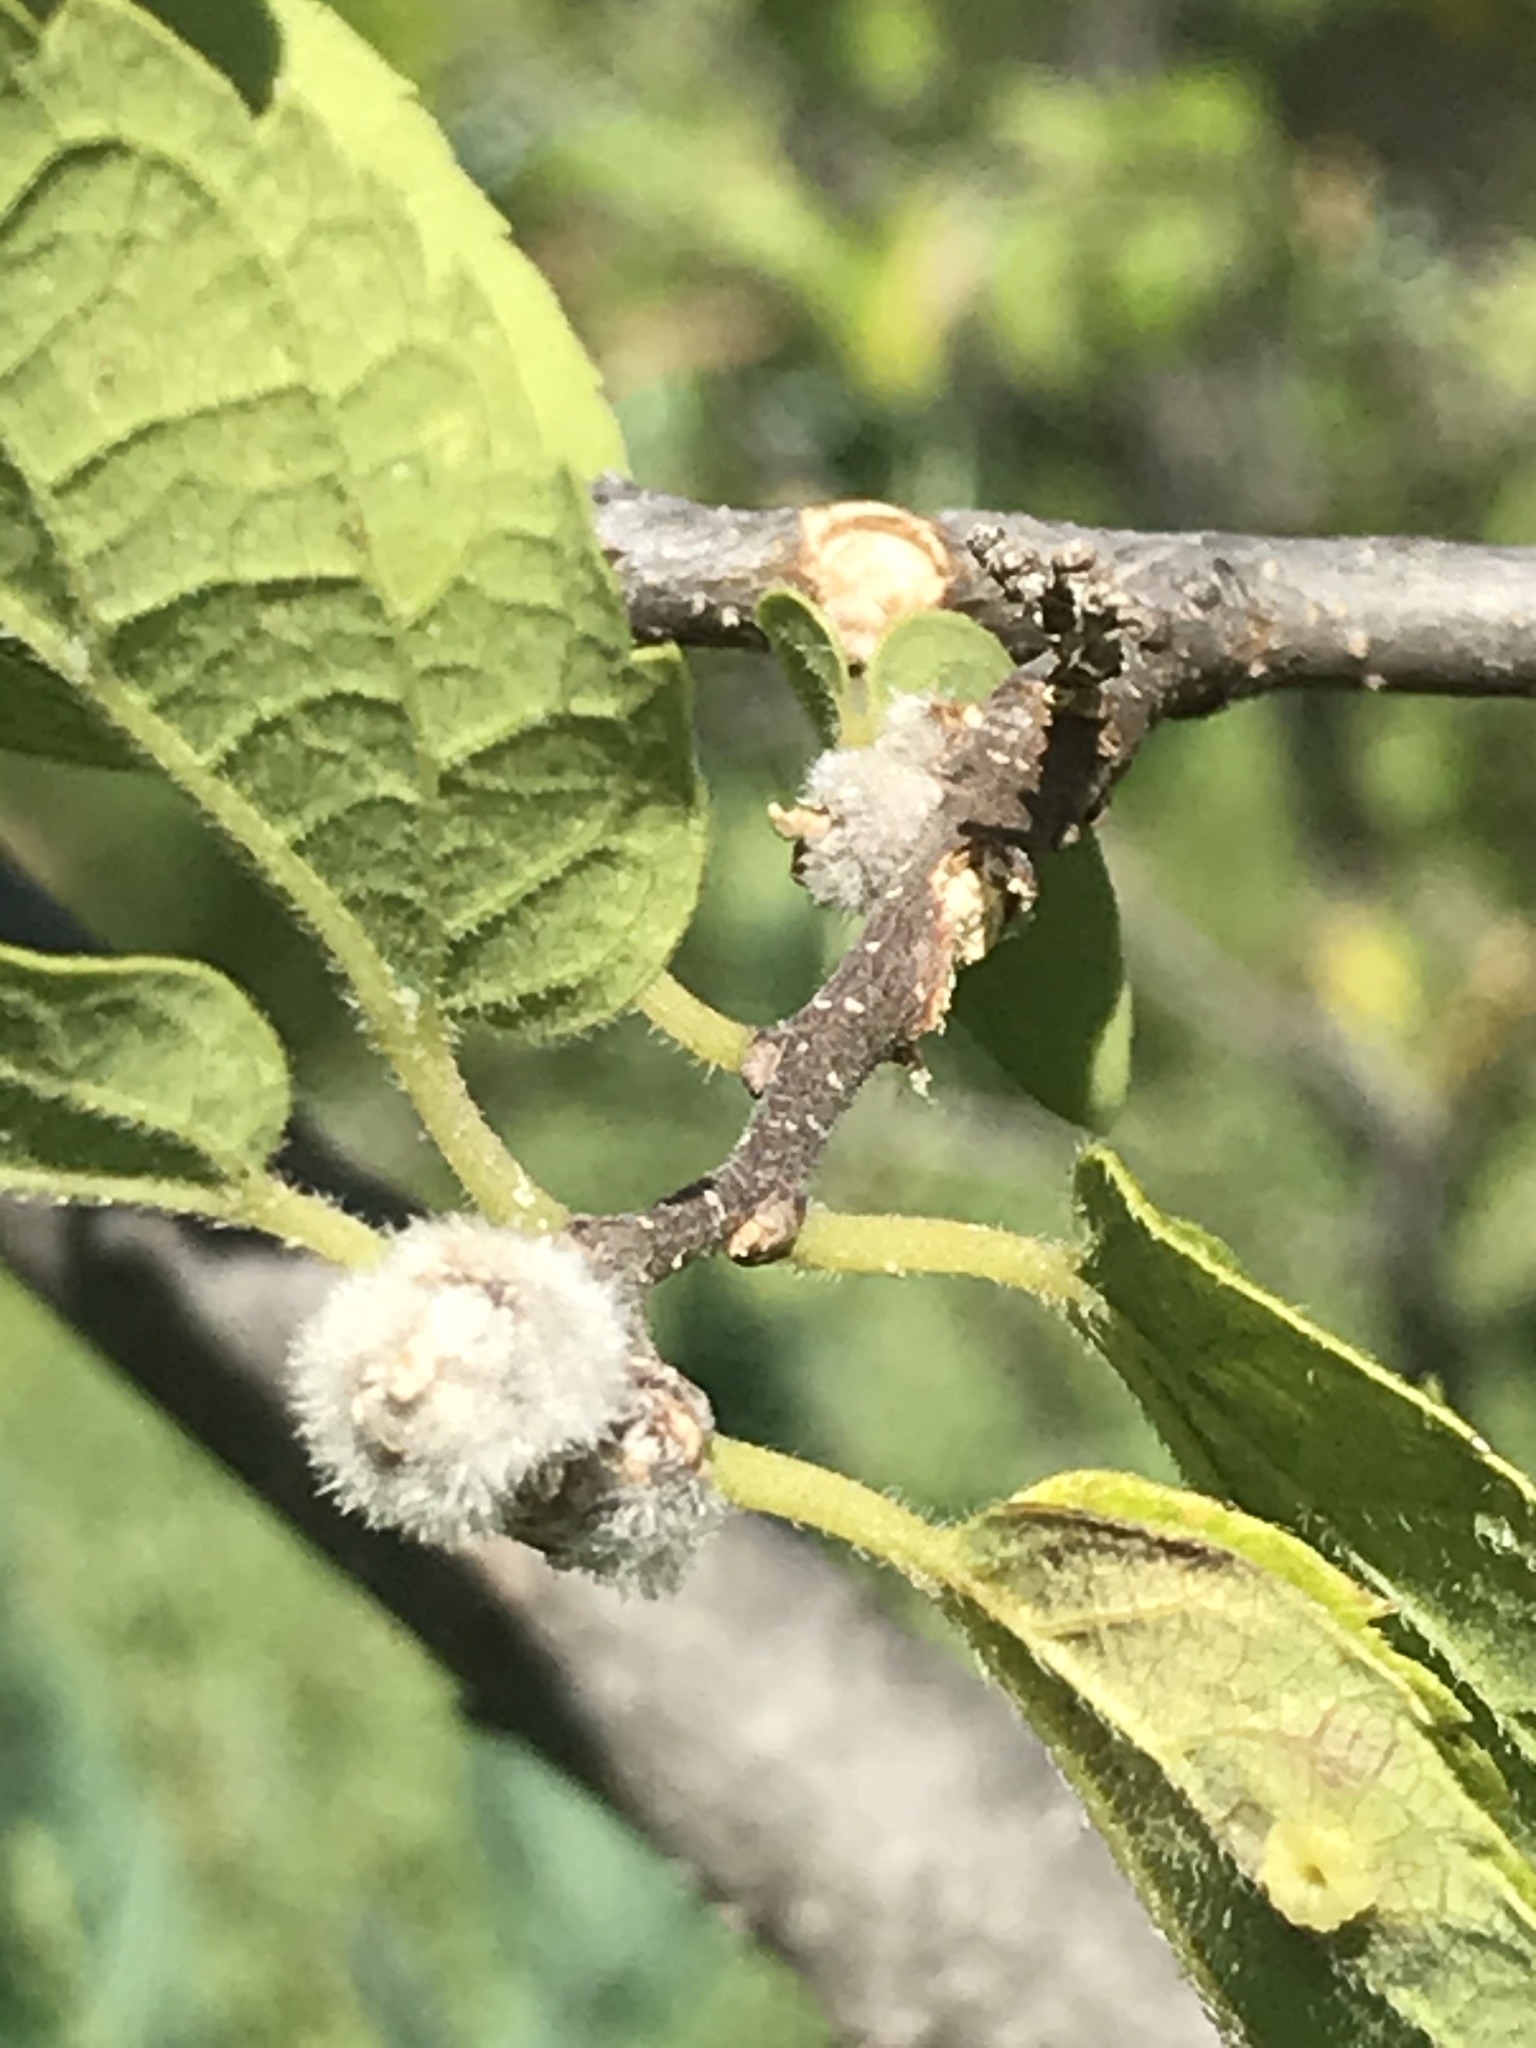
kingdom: Animalia
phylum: Arthropoda
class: Insecta
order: Hemiptera
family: Aphalaridae
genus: Pachypsylla
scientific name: Pachypsylla celtidisgemma
